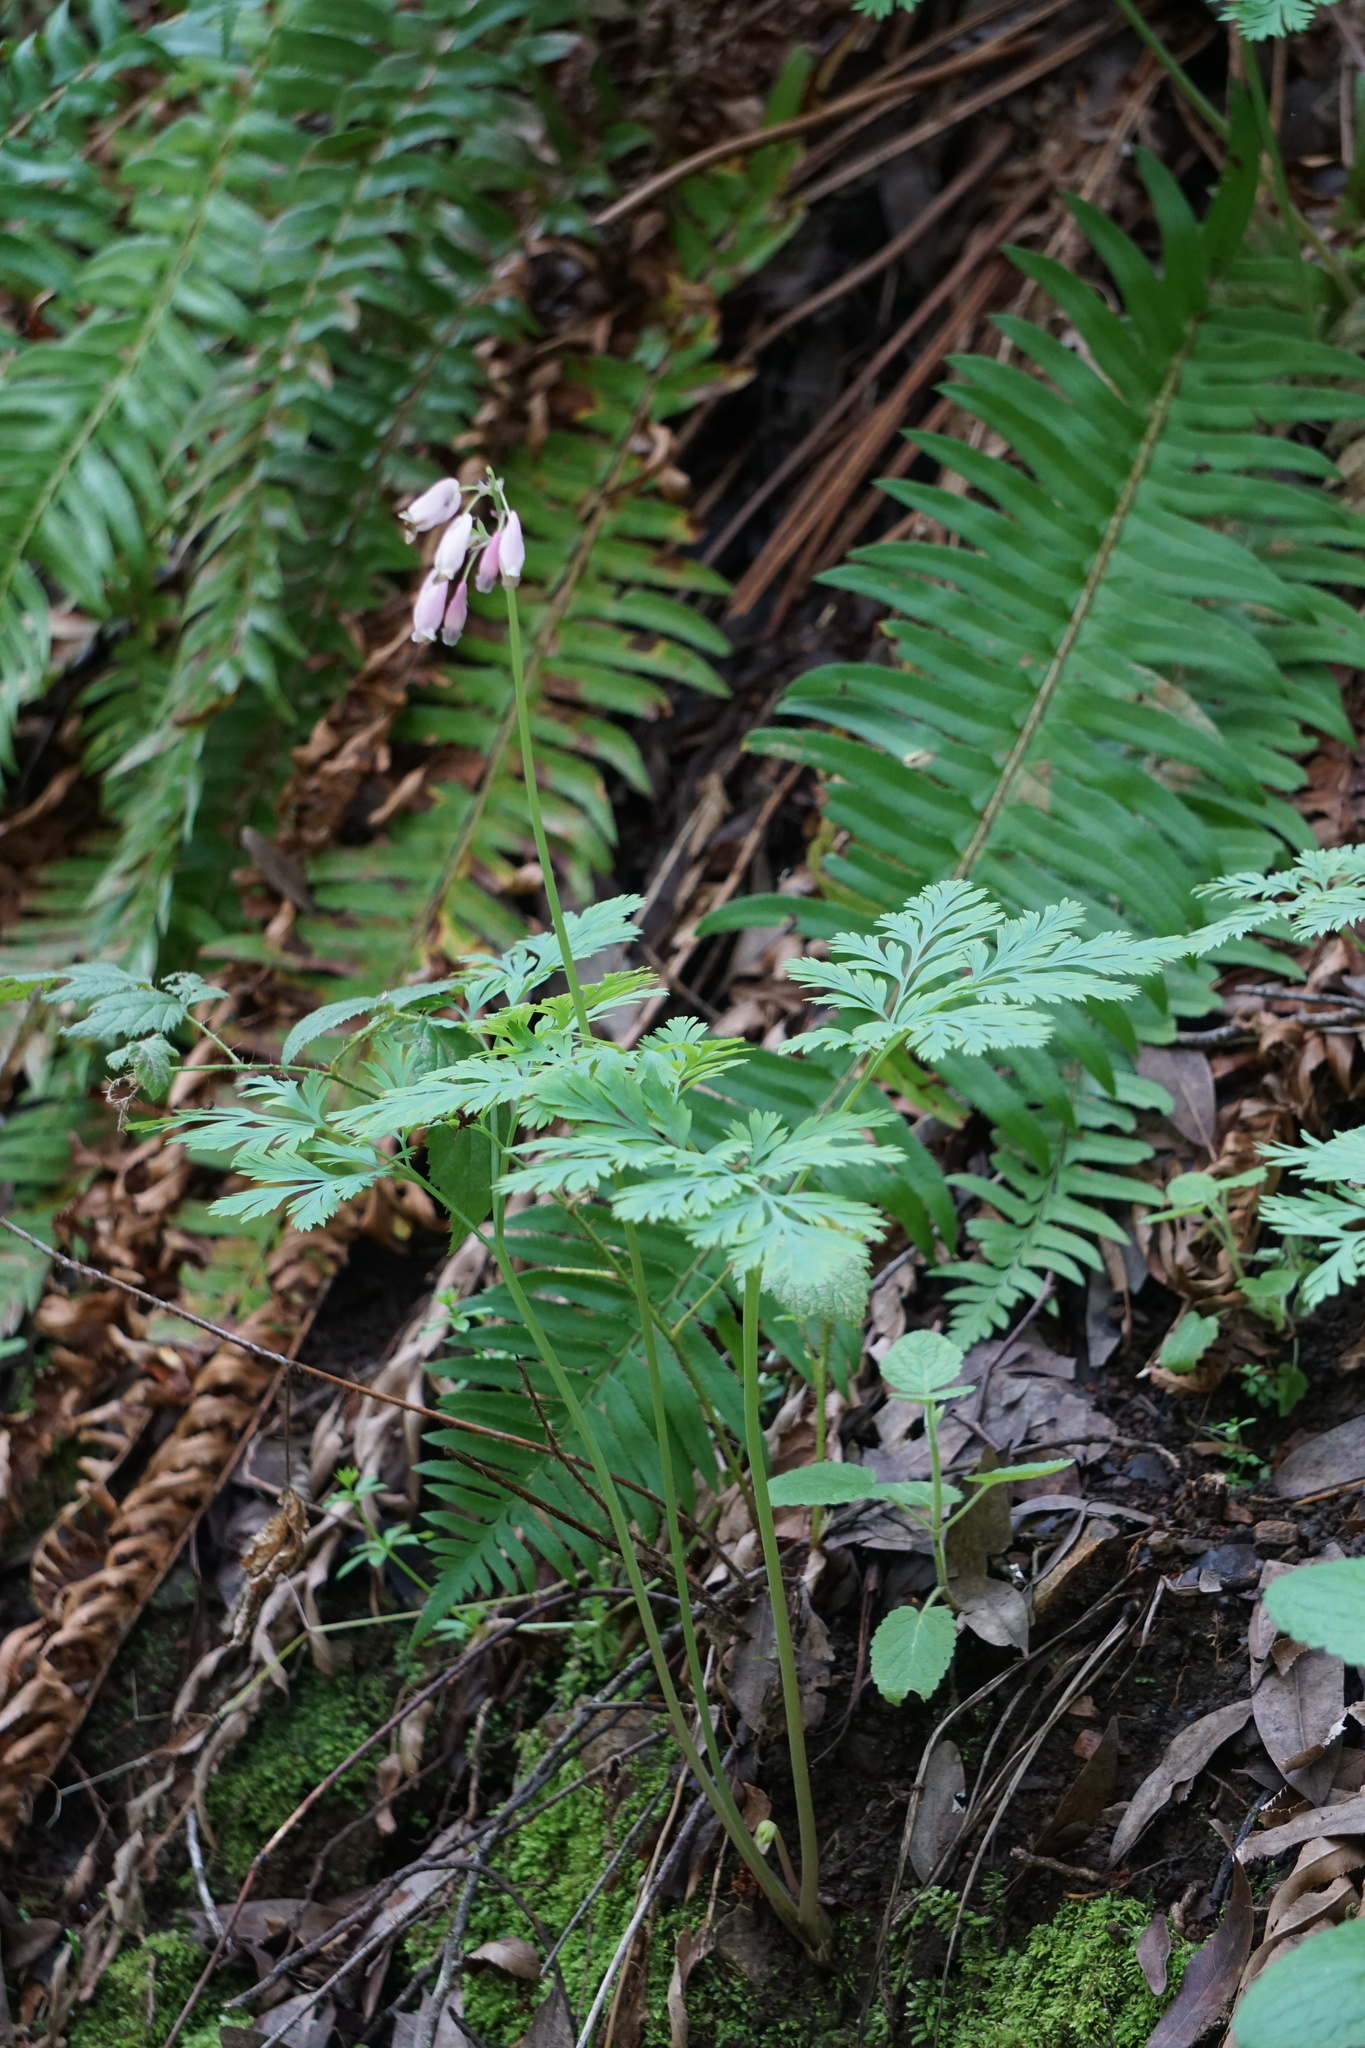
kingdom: Plantae
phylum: Tracheophyta
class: Magnoliopsida
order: Ranunculales
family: Papaveraceae
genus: Dicentra
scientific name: Dicentra formosa
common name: Bleeding-heart
